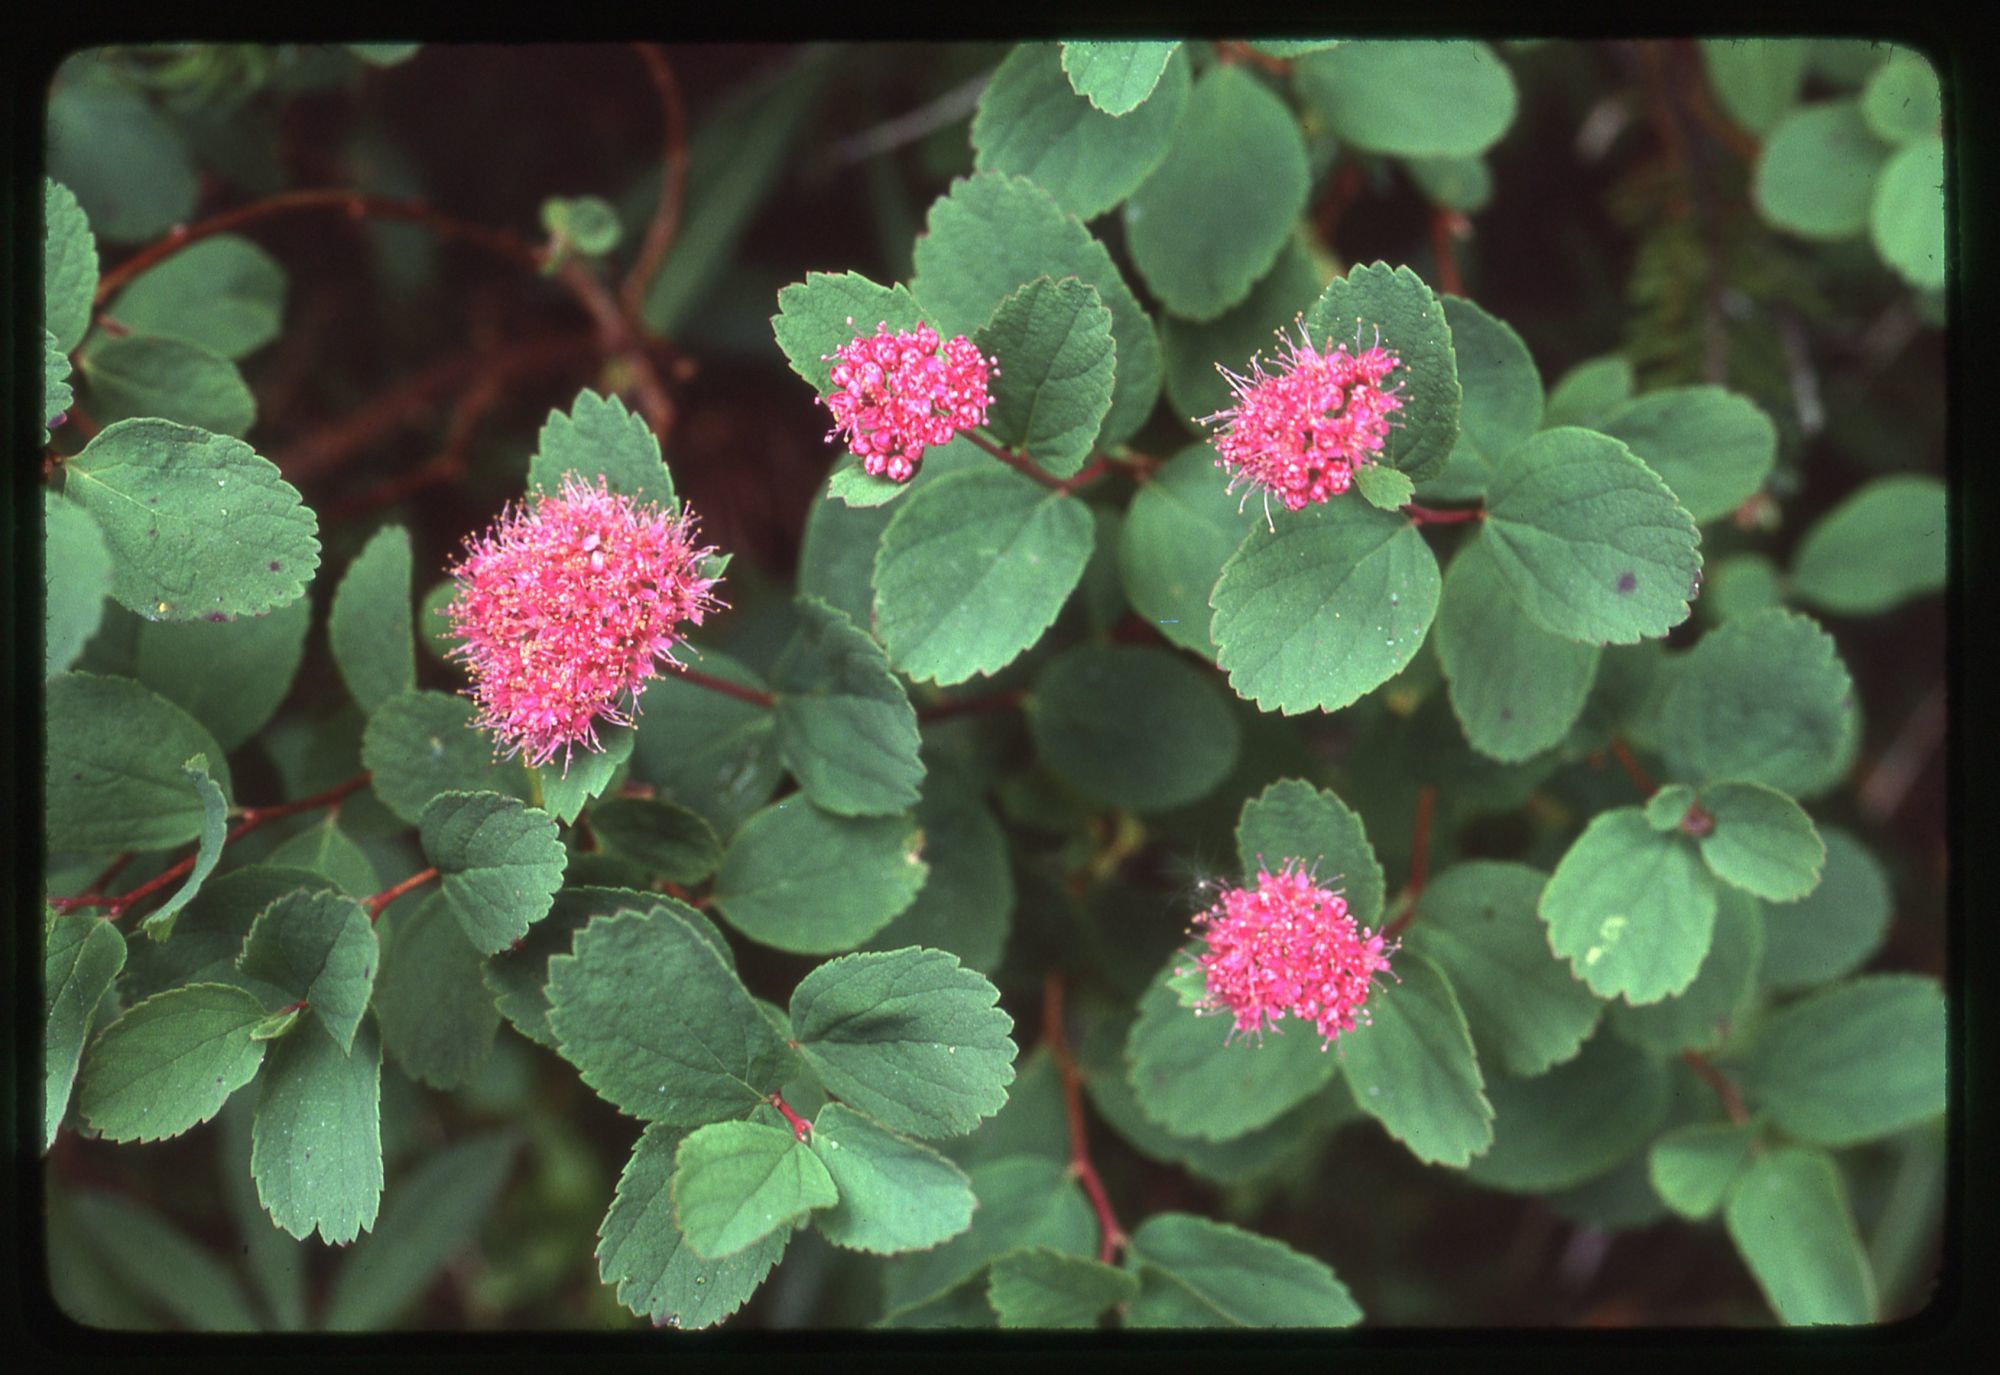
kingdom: Plantae
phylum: Tracheophyta
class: Magnoliopsida
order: Rosales
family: Rosaceae
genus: Spiraea
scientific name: Spiraea splendens
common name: Subalpine meadowsweet
